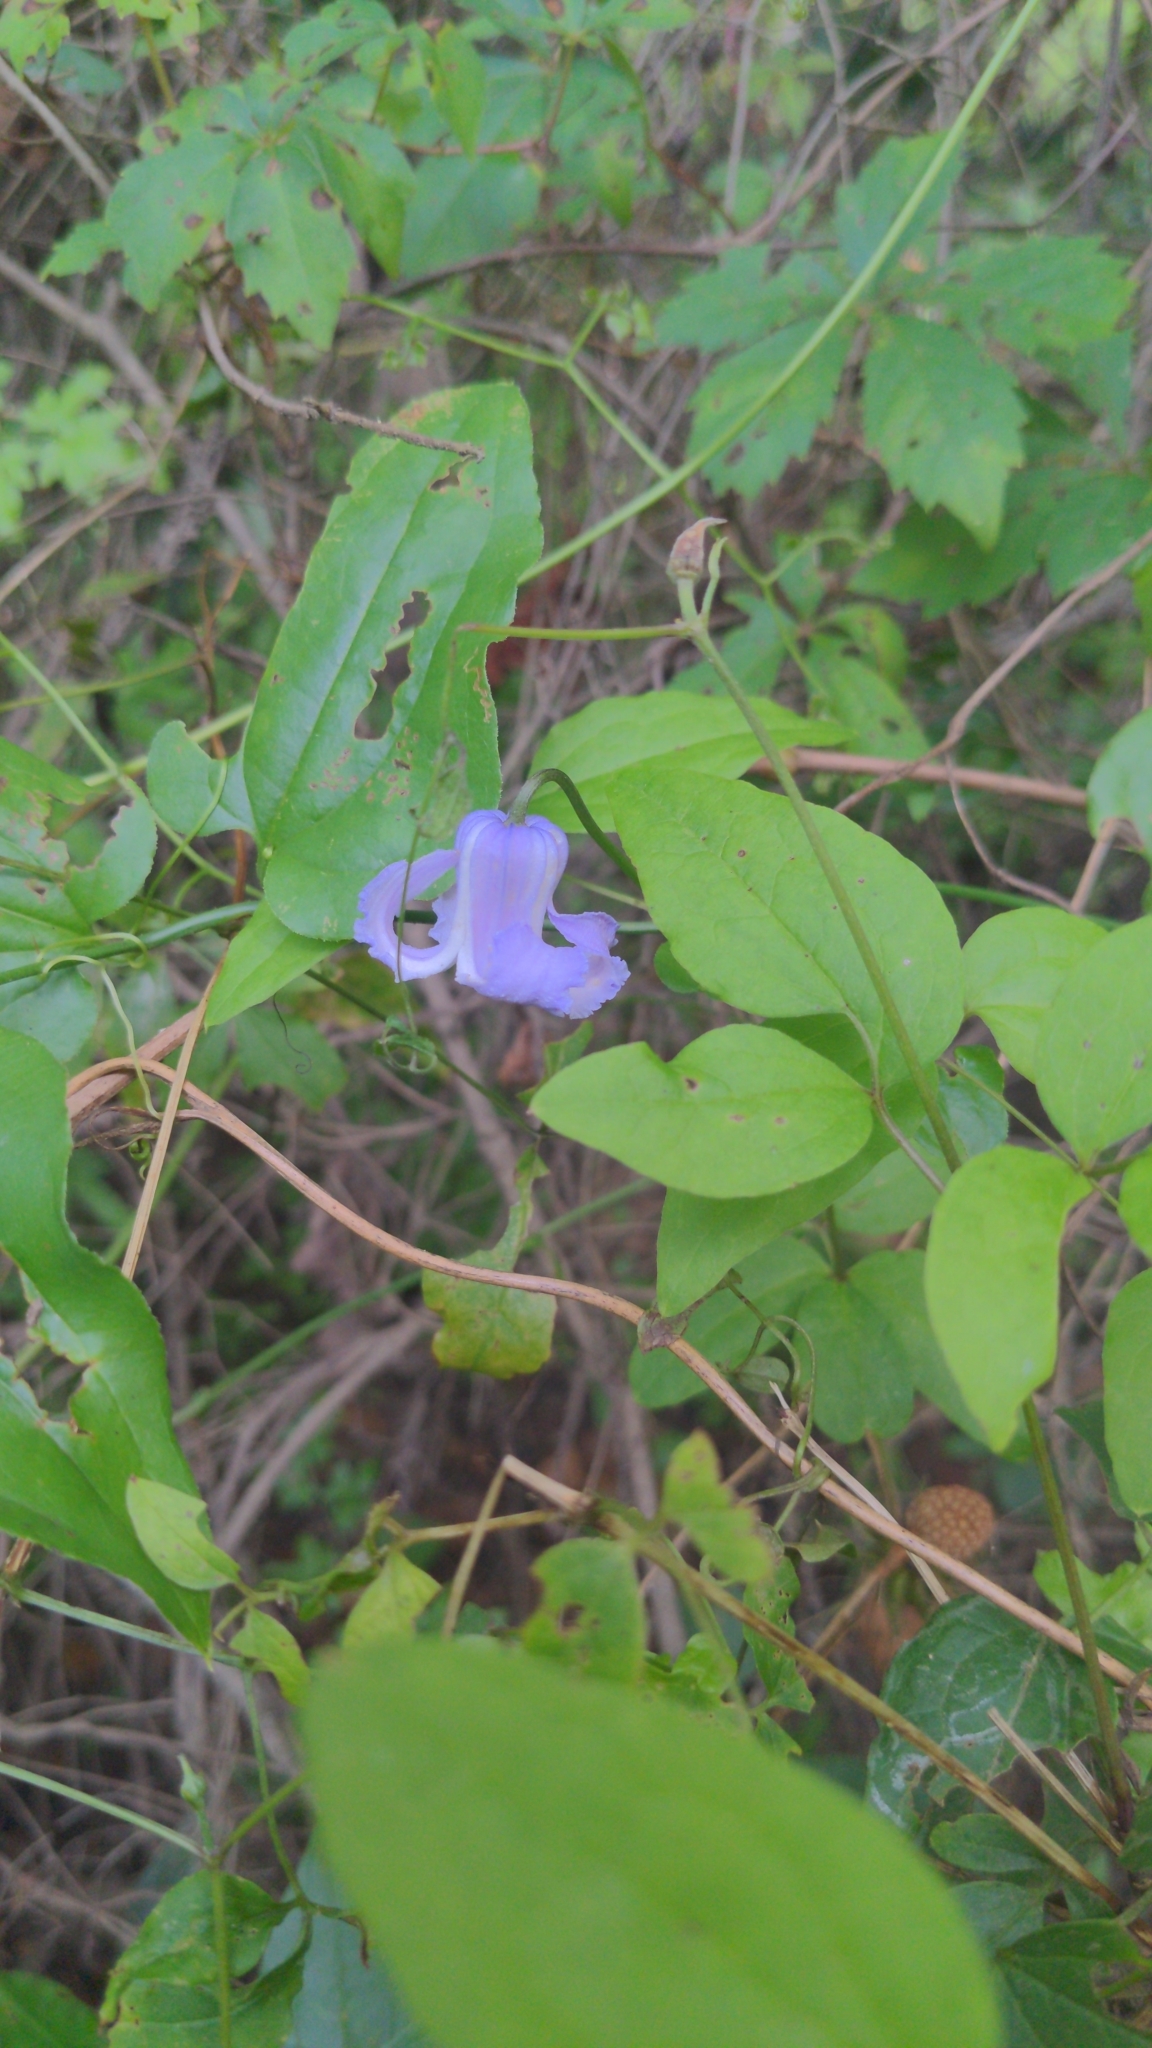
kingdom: Plantae
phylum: Tracheophyta
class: Magnoliopsida
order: Ranunculales
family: Ranunculaceae
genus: Clematis
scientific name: Clematis crispa
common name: Curly clematis
